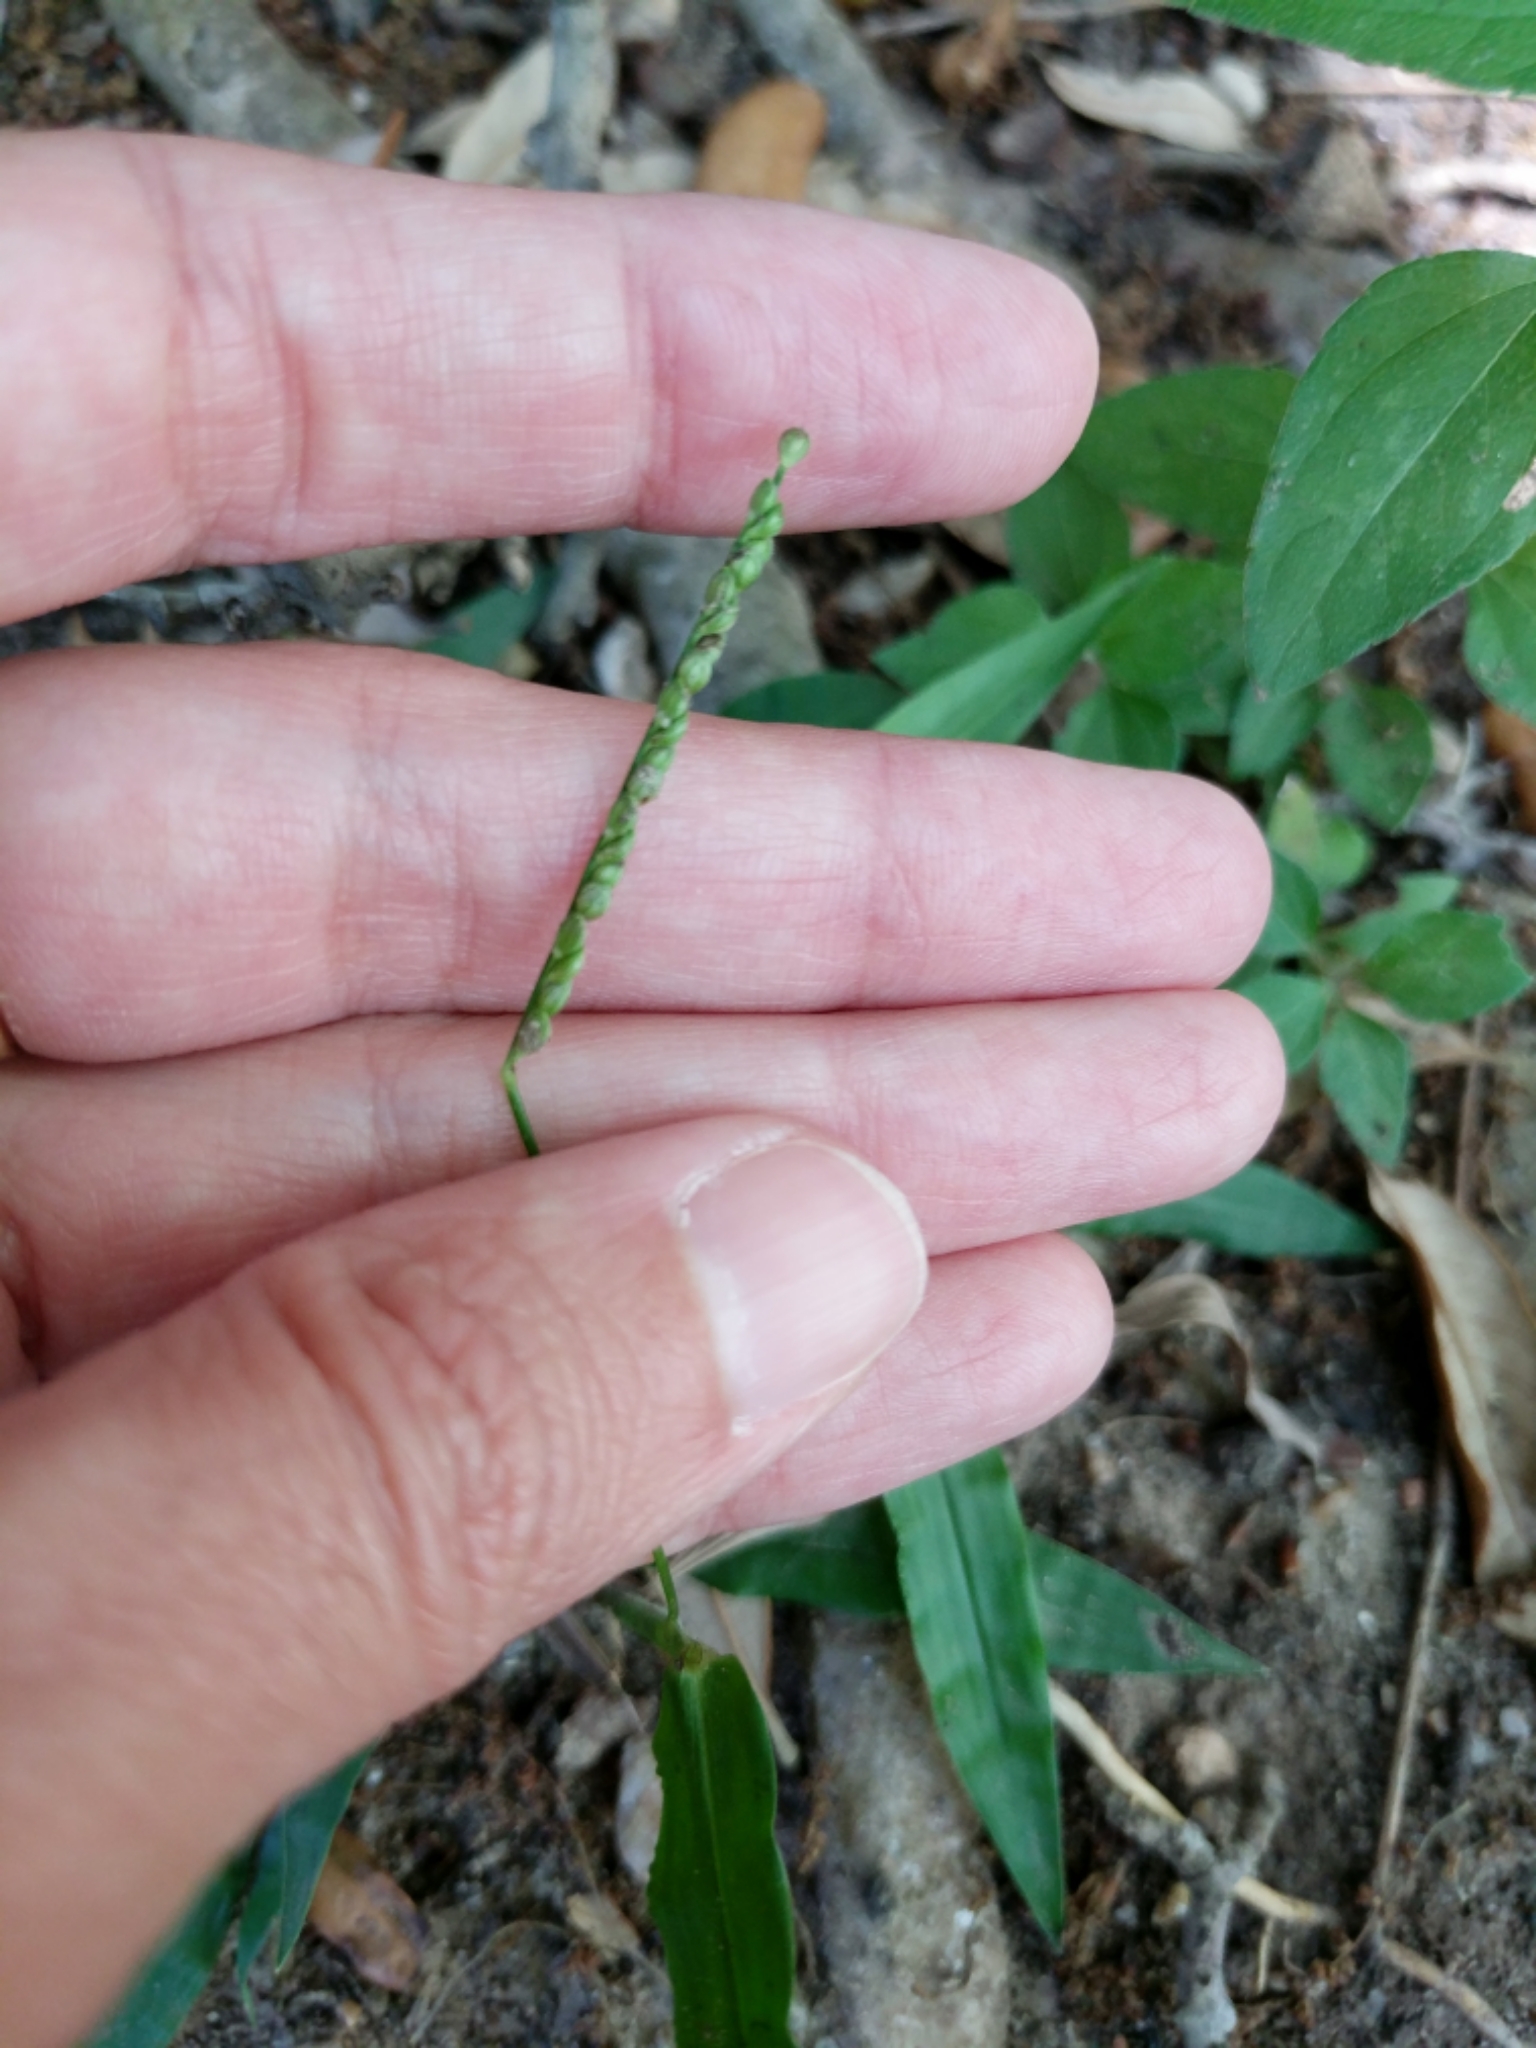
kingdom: Plantae
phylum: Tracheophyta
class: Liliopsida
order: Poales
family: Poaceae
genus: Paspalum
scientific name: Paspalum langei
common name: Rusty-seed paspalum
